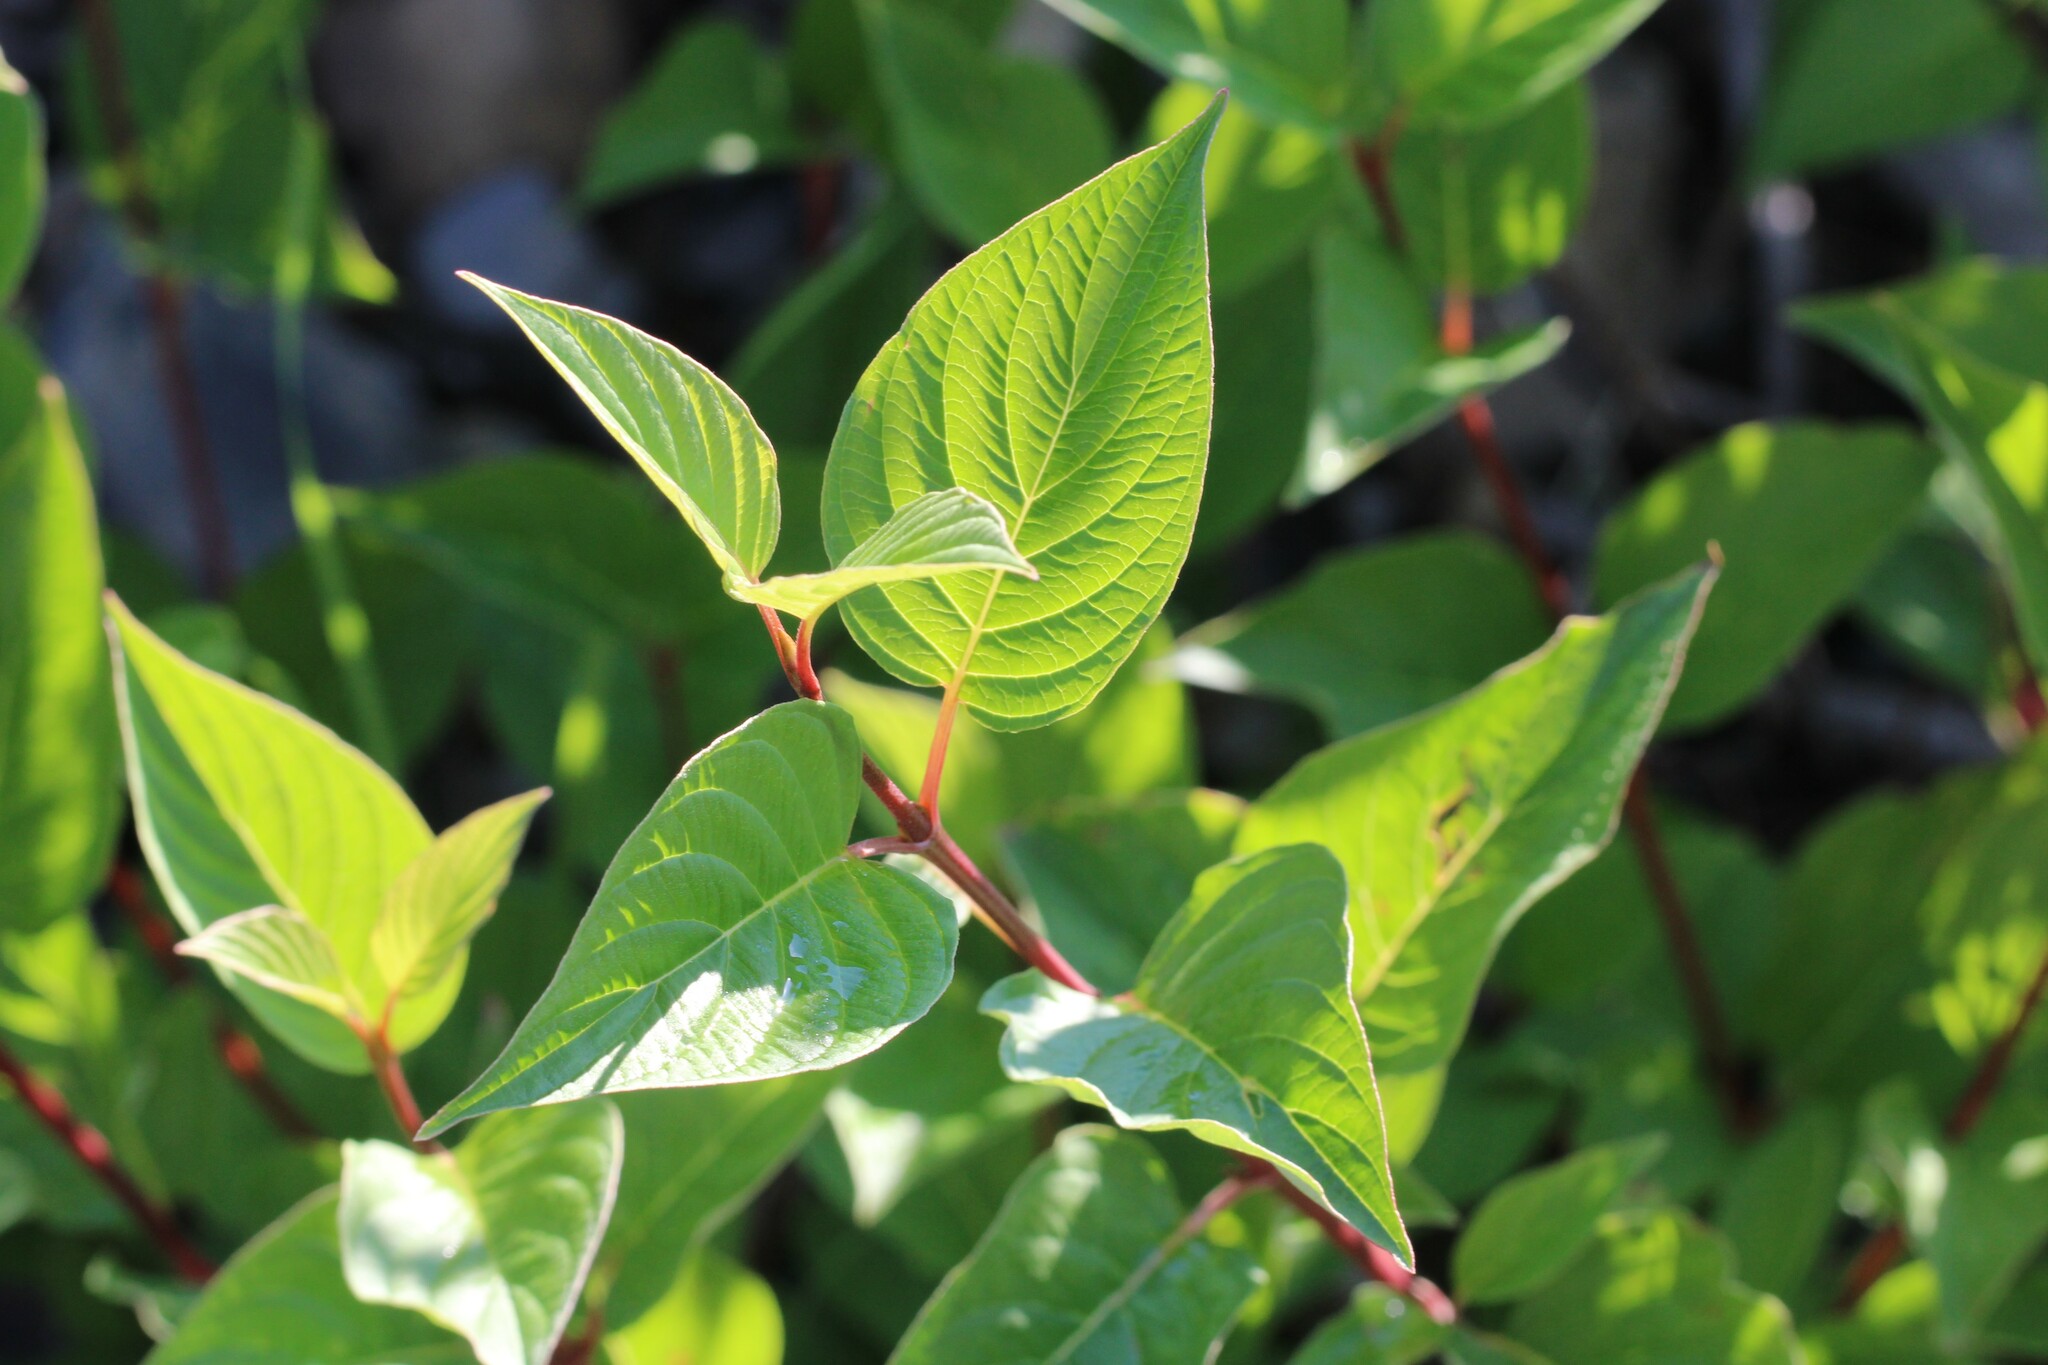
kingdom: Plantae
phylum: Tracheophyta
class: Magnoliopsida
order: Cornales
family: Cornaceae
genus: Cornus
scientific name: Cornus sericea
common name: Red-osier dogwood
